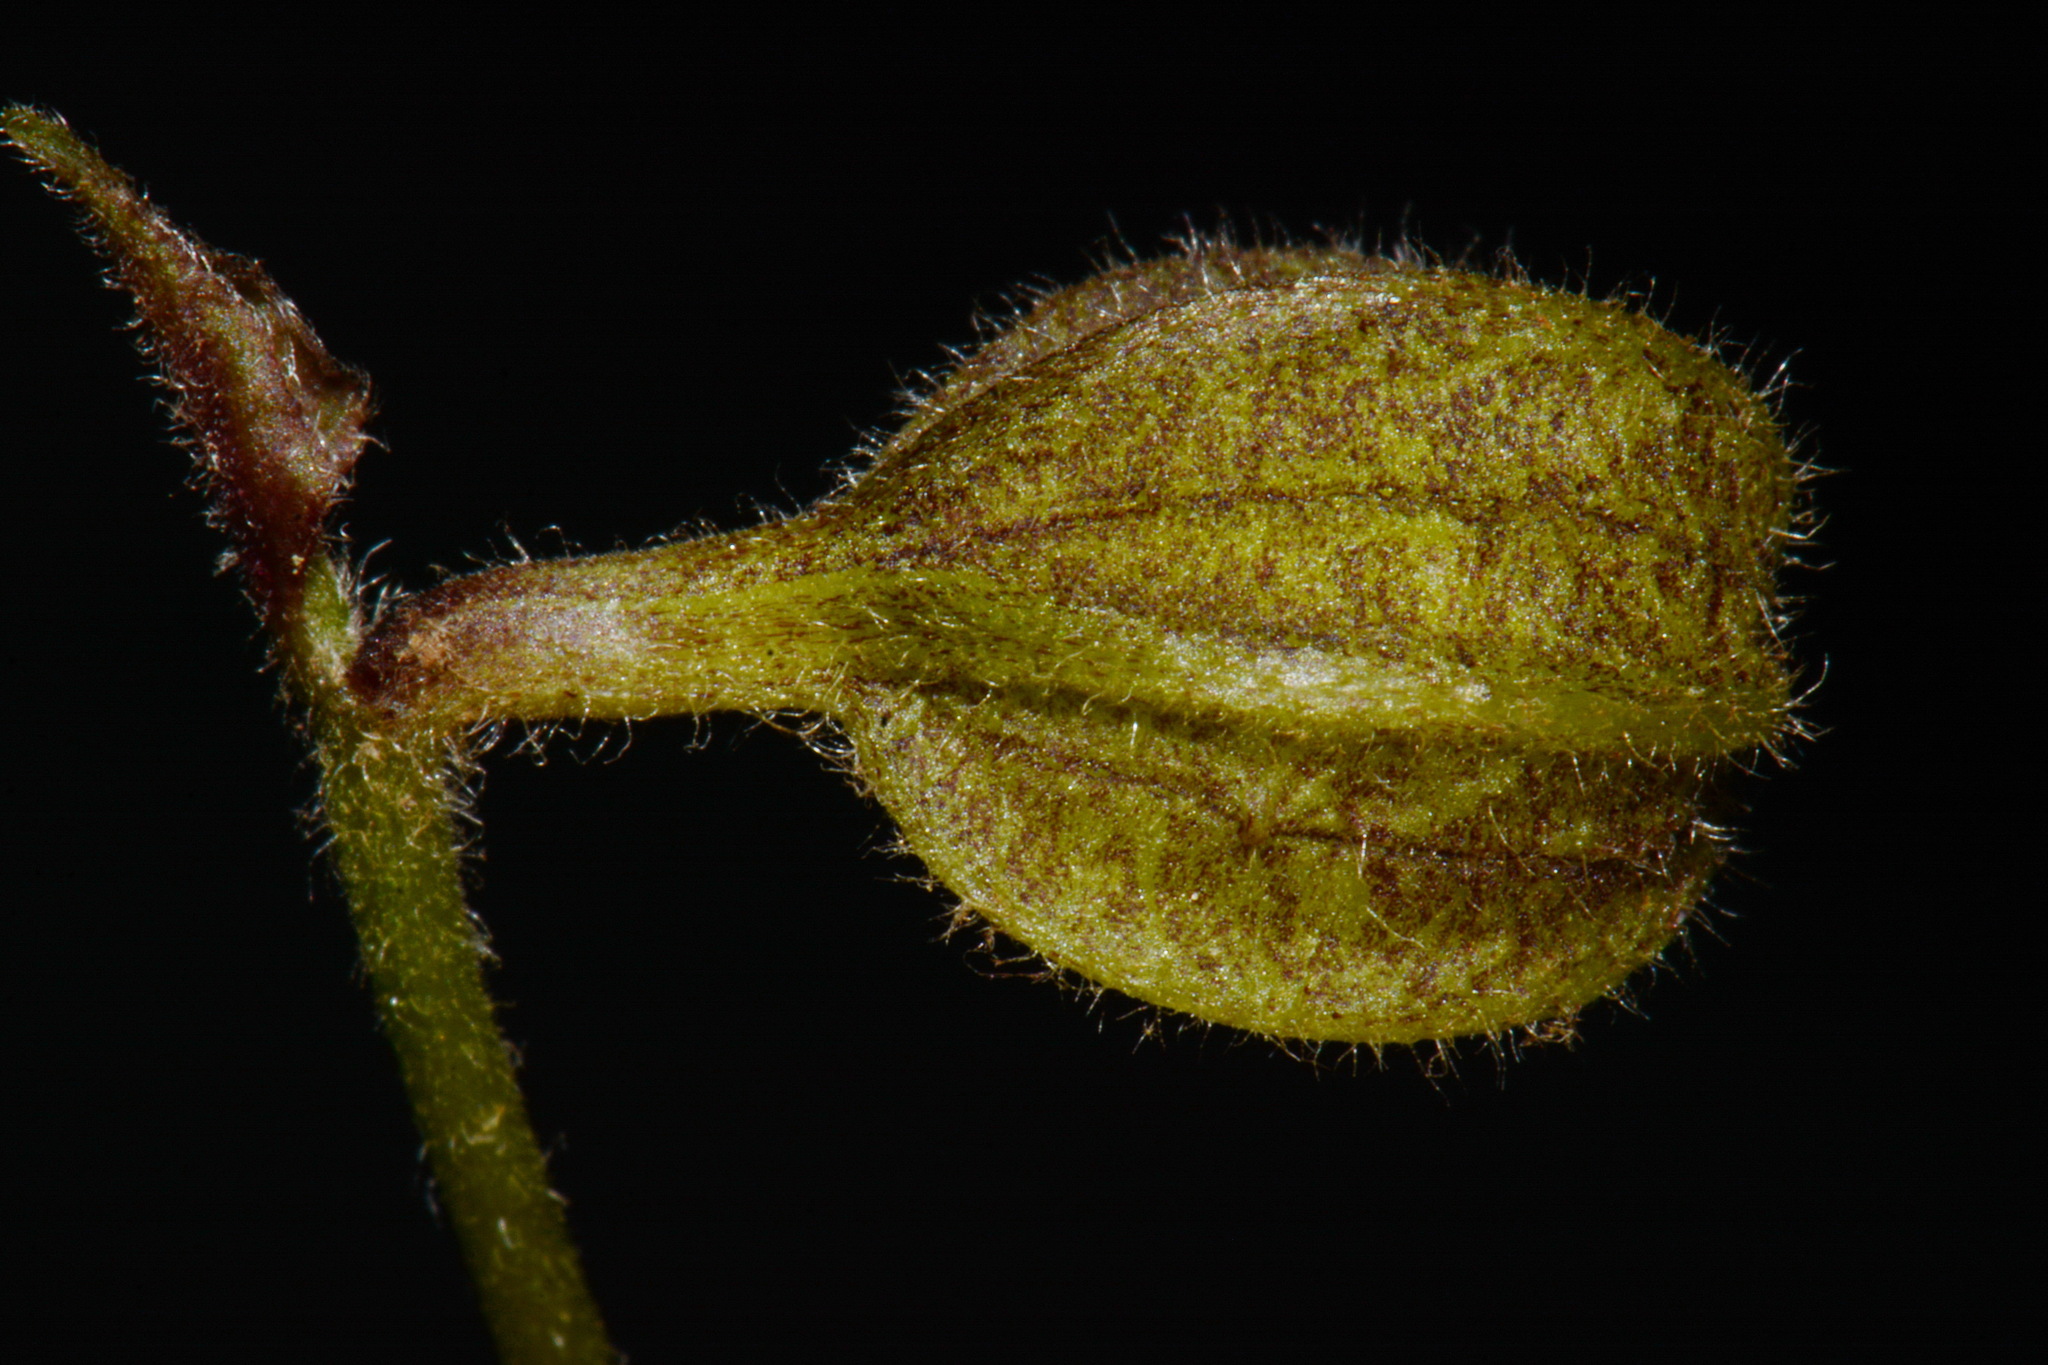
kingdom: Plantae
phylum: Tracheophyta
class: Magnoliopsida
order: Piperales
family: Aristolochiaceae
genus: Endodeca
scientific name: Endodeca serpentaria
